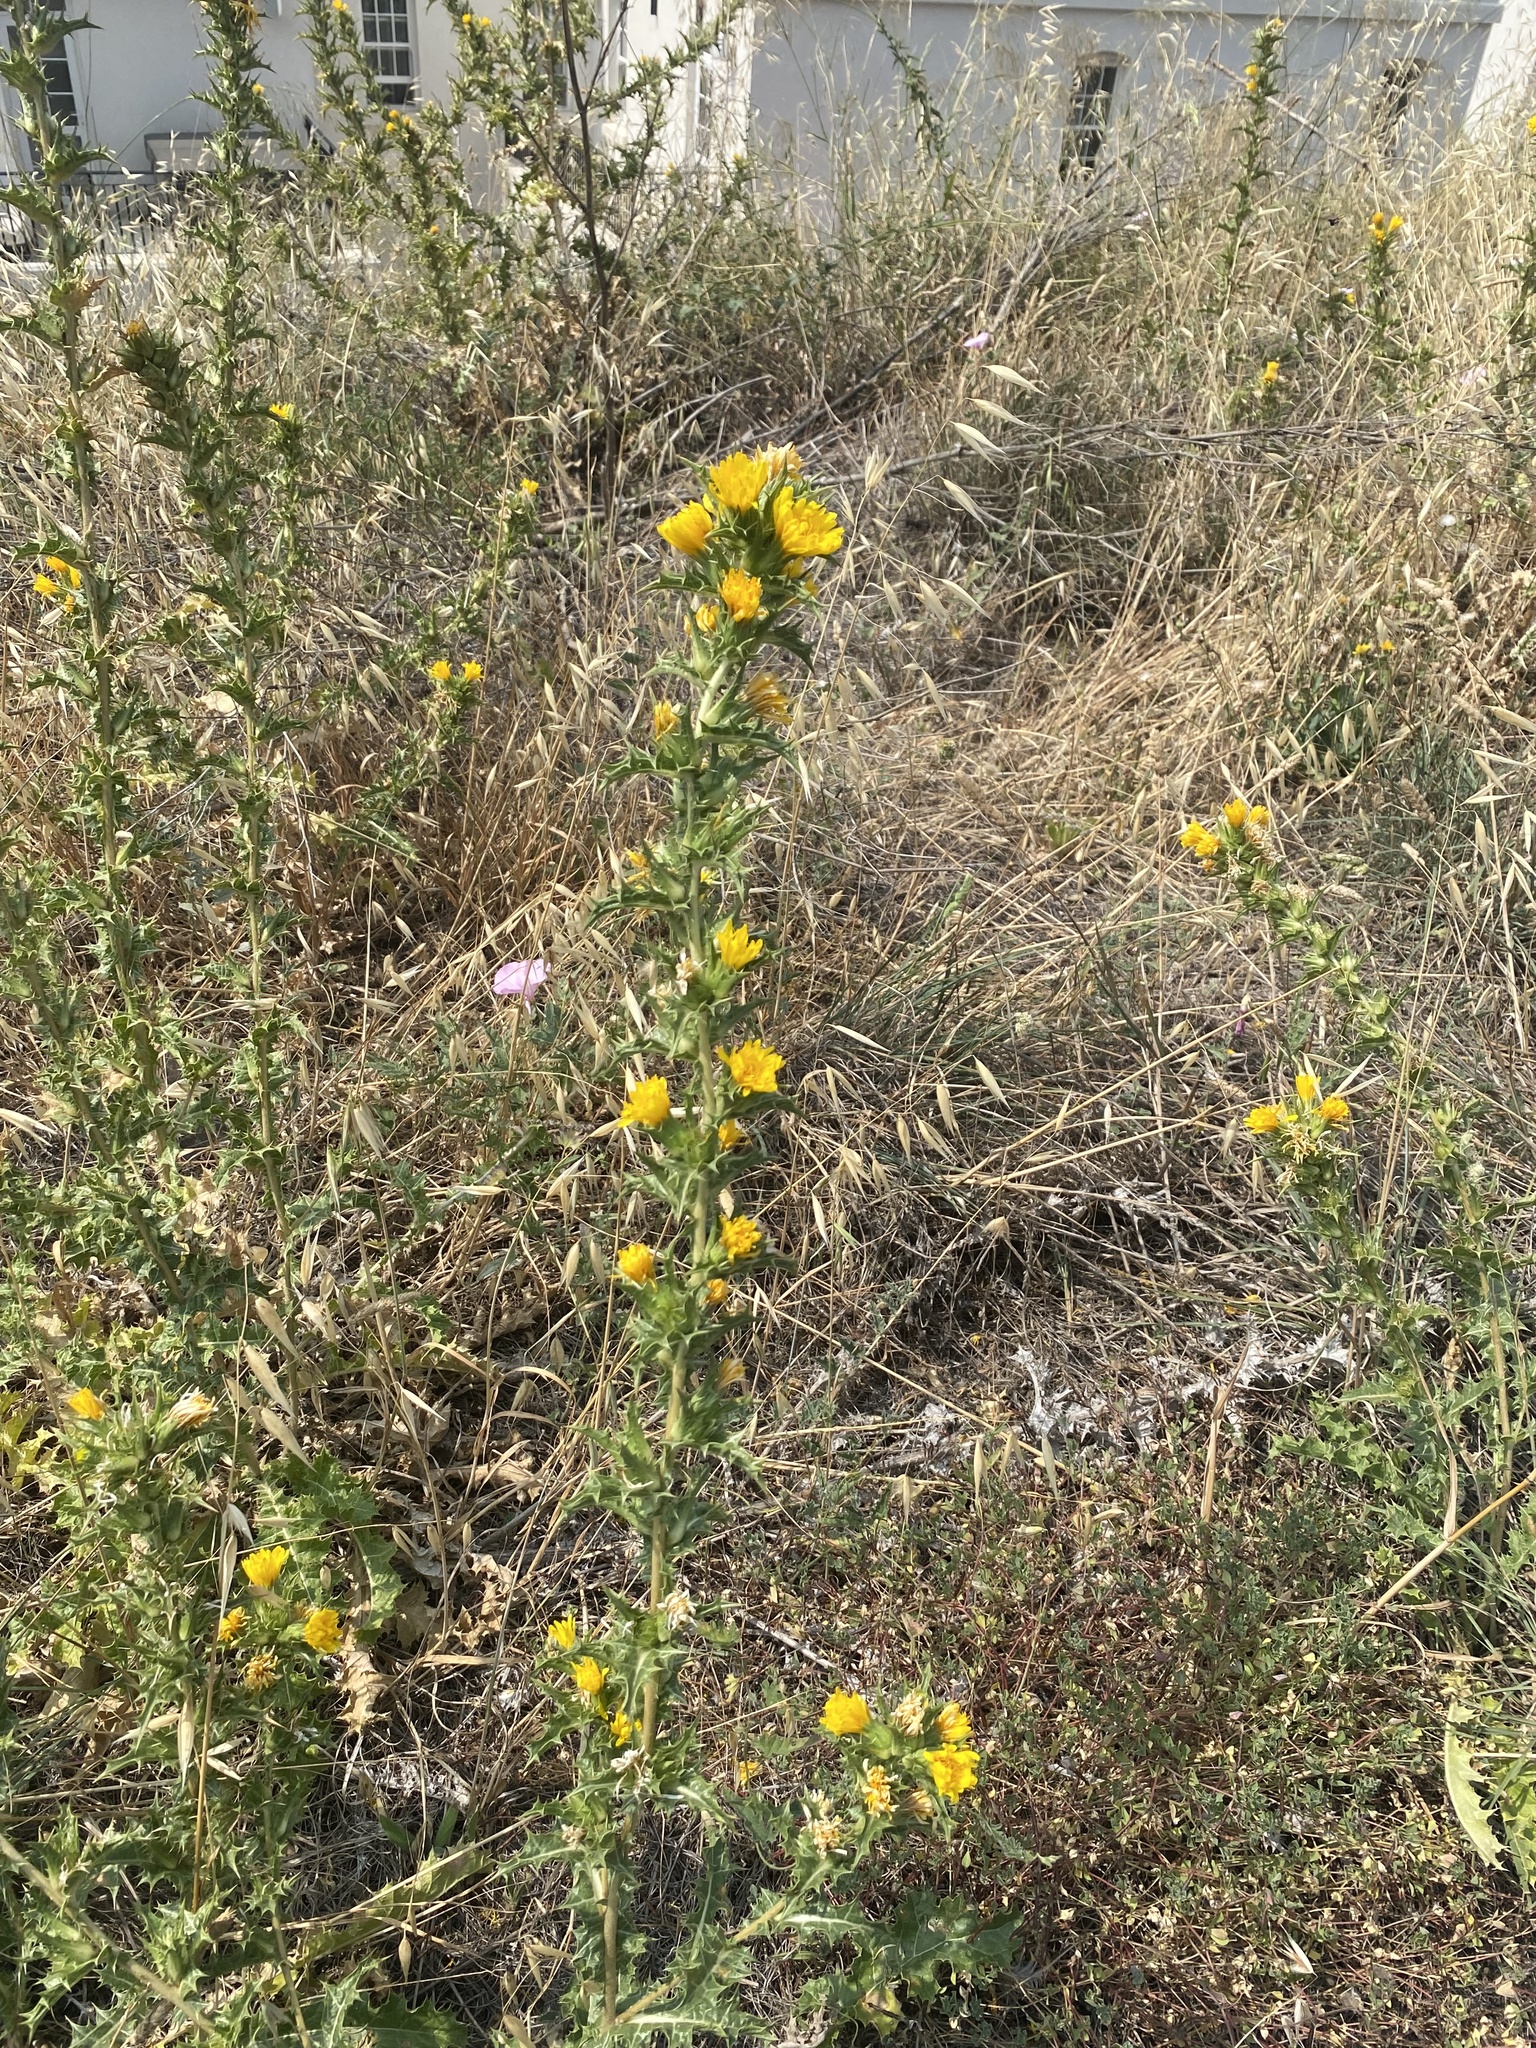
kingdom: Plantae
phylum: Tracheophyta
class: Magnoliopsida
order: Asterales
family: Asteraceae
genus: Scolymus
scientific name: Scolymus hispanicus
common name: Golden thistle
